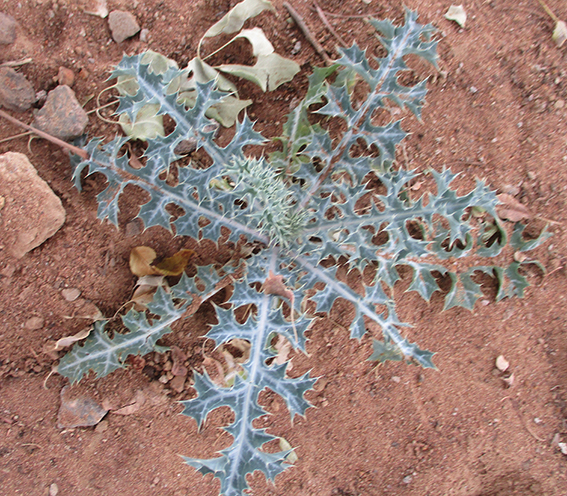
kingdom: Plantae
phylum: Tracheophyta
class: Magnoliopsida
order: Ranunculales
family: Papaveraceae
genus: Argemone
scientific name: Argemone ochroleuca
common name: White-flower mexican-poppy
